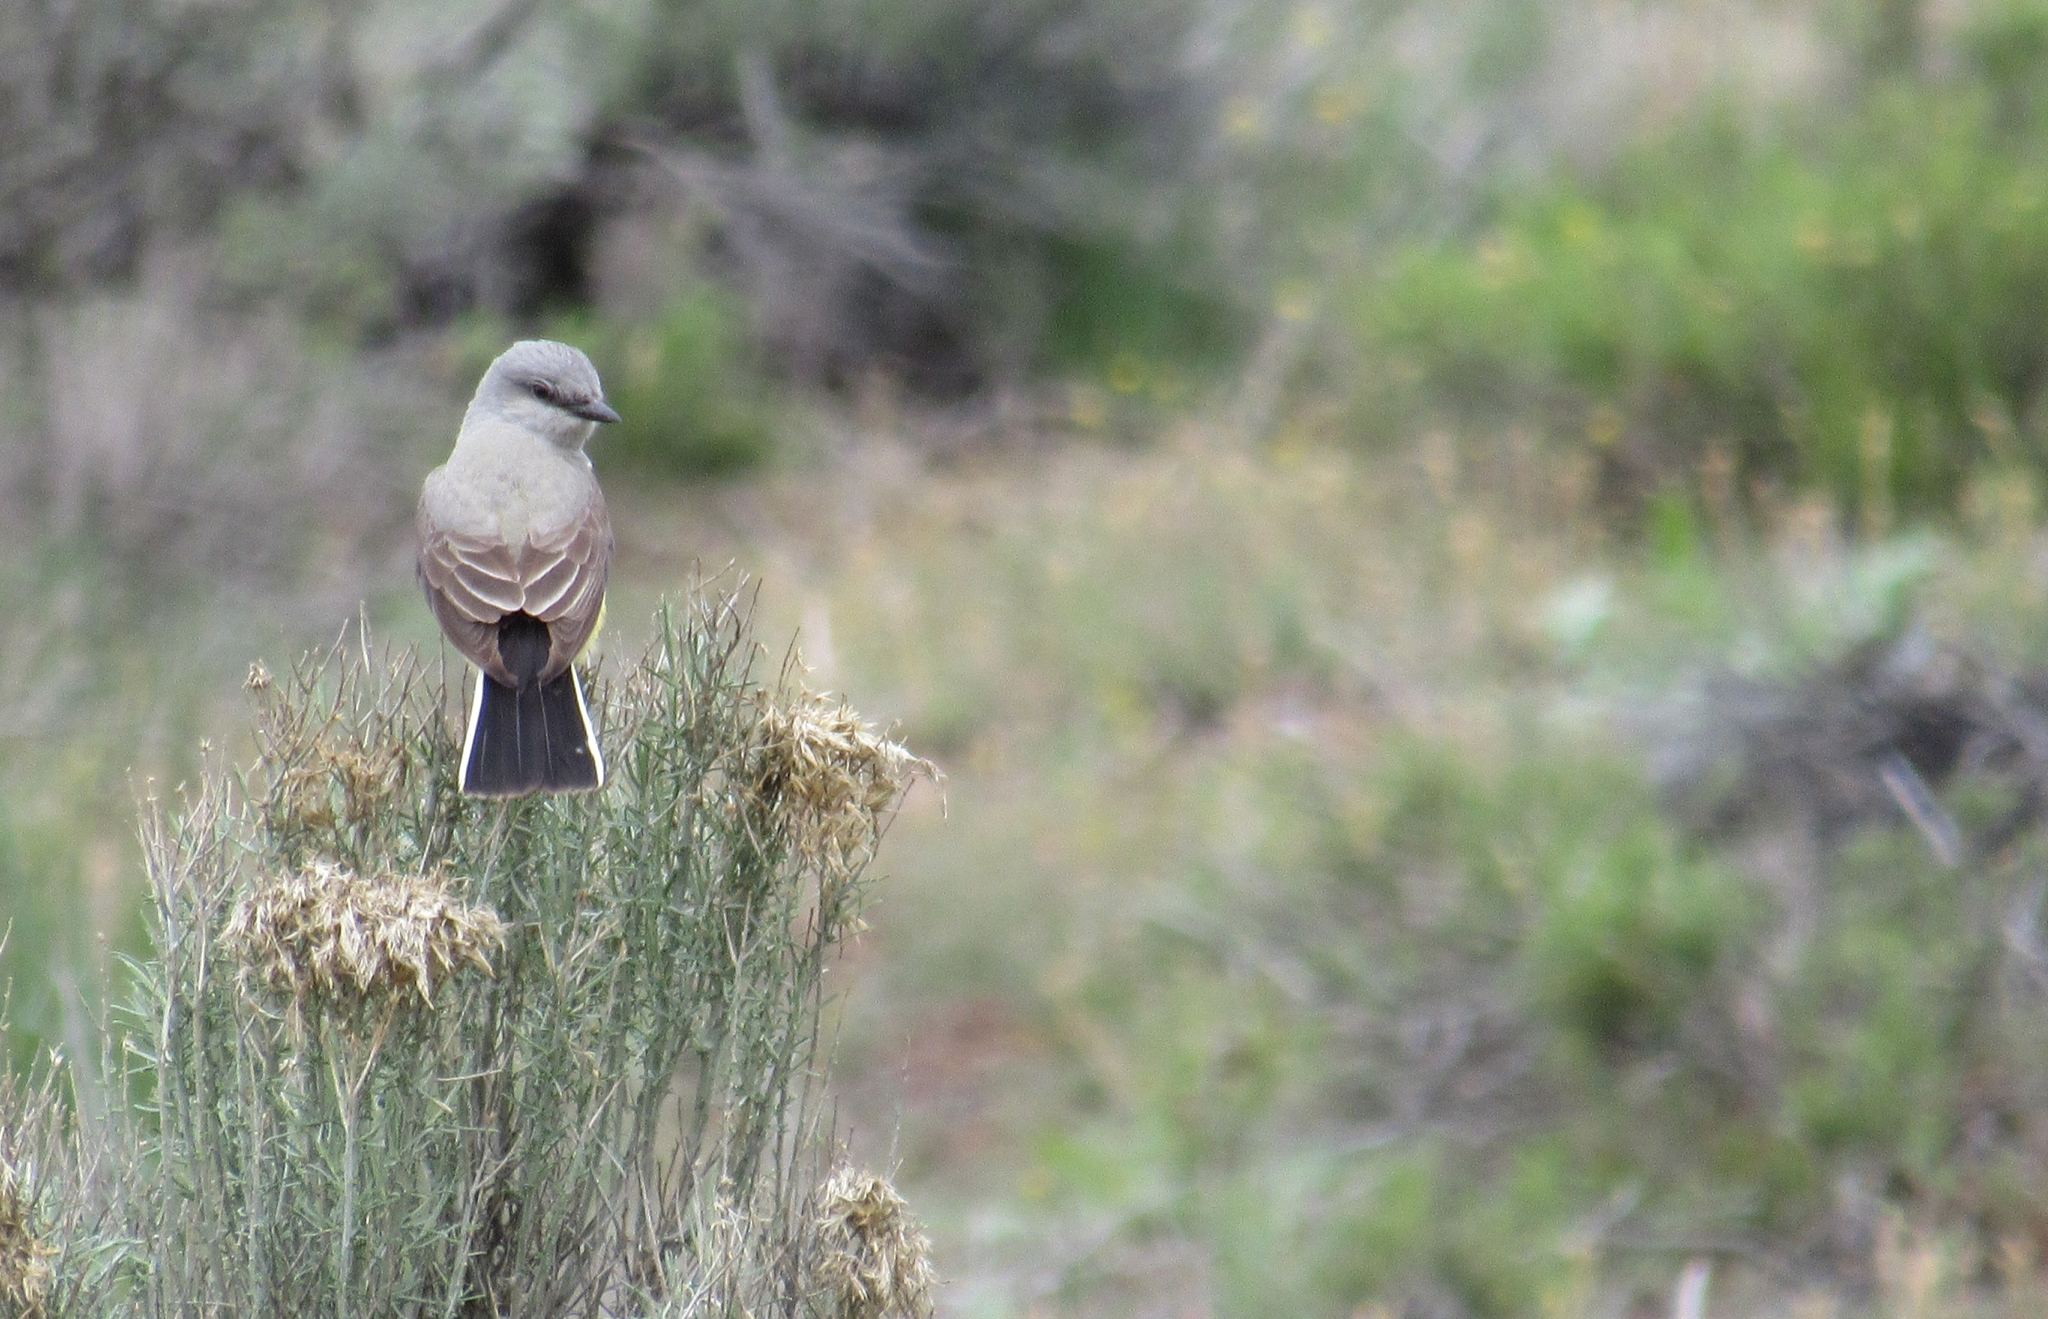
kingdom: Animalia
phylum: Chordata
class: Aves
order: Passeriformes
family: Tyrannidae
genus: Tyrannus
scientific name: Tyrannus verticalis
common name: Western kingbird
